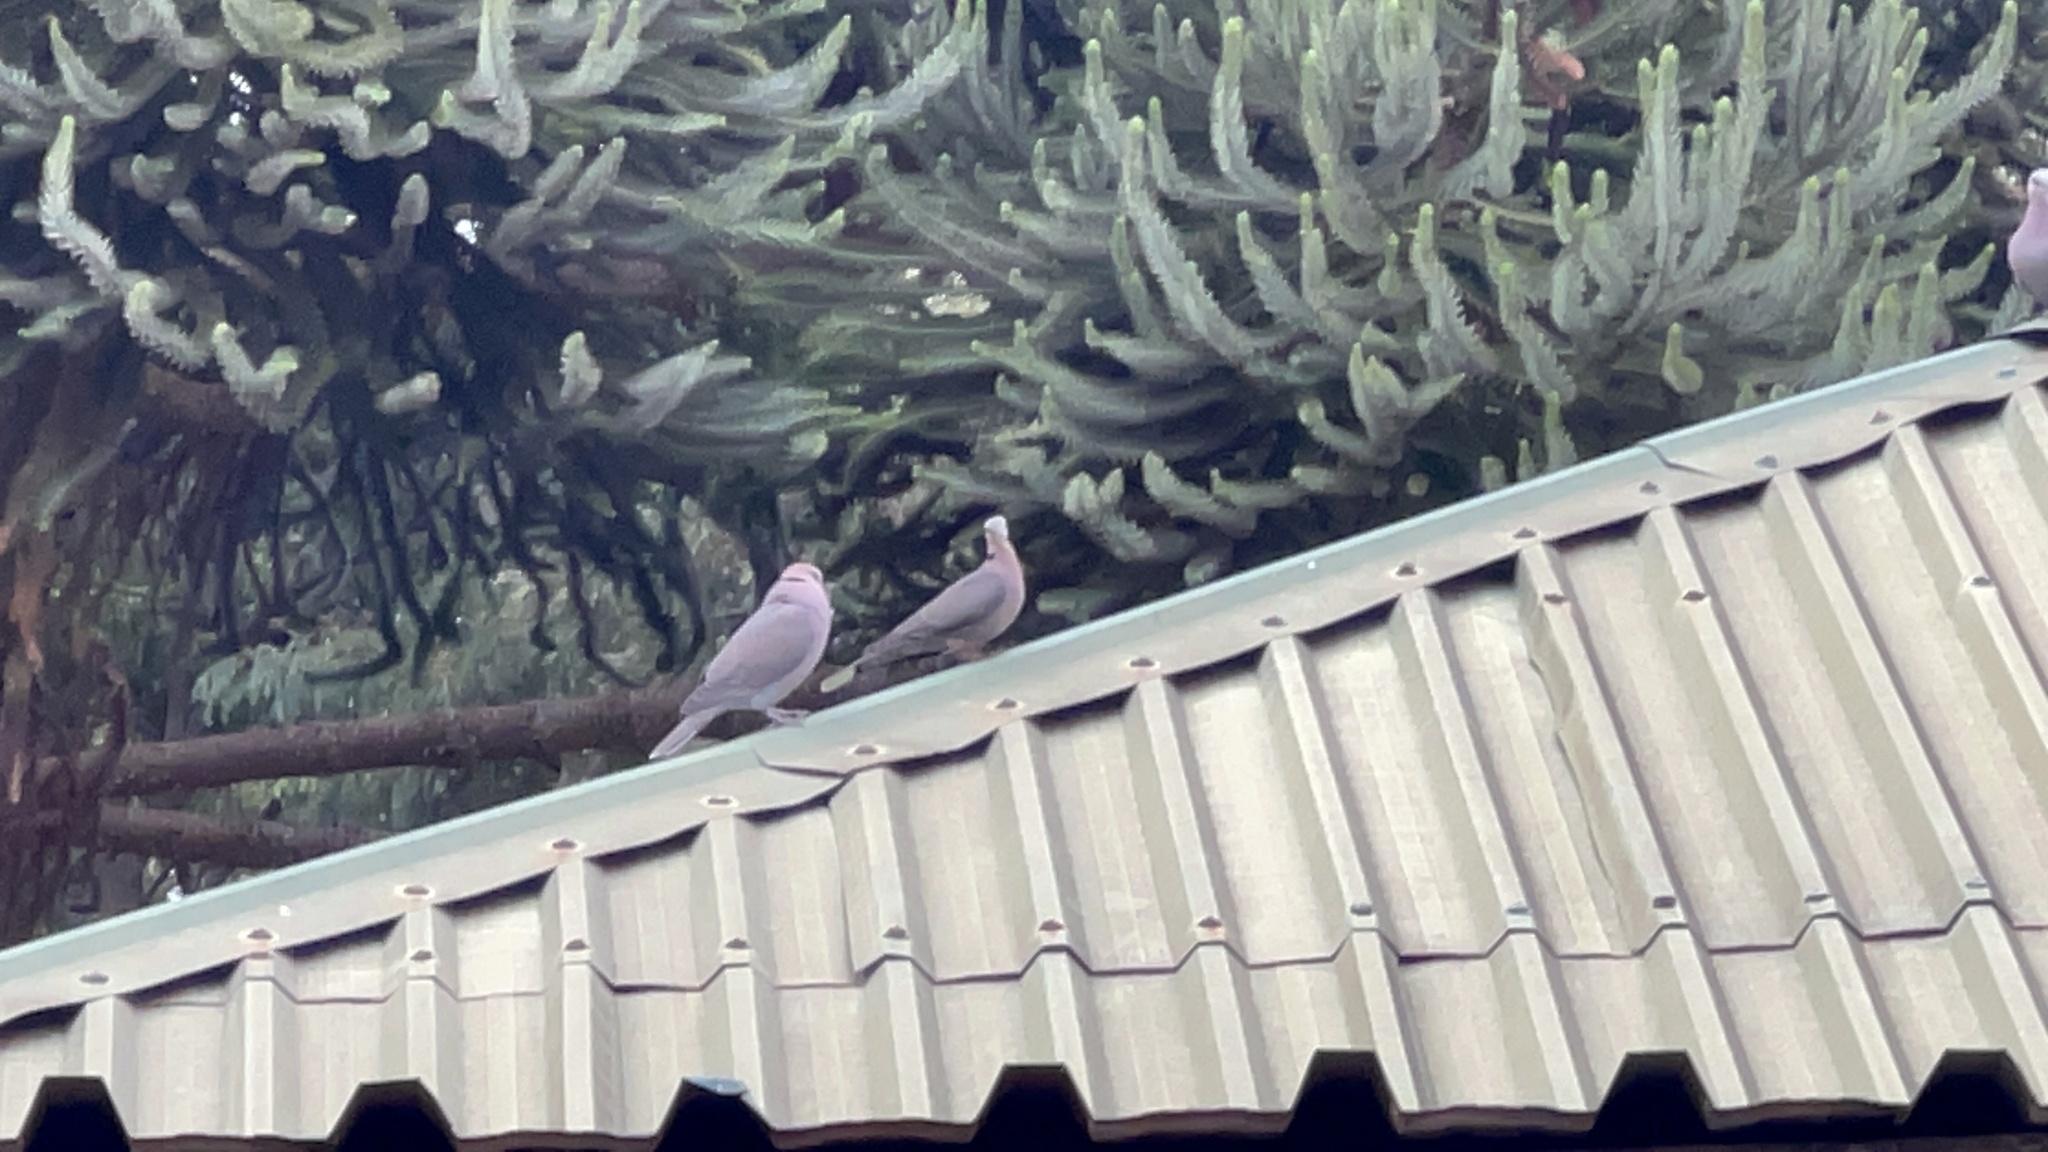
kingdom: Animalia
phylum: Chordata
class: Aves
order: Columbiformes
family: Columbidae
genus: Streptopelia
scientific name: Streptopelia semitorquata
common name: Red-eyed dove
